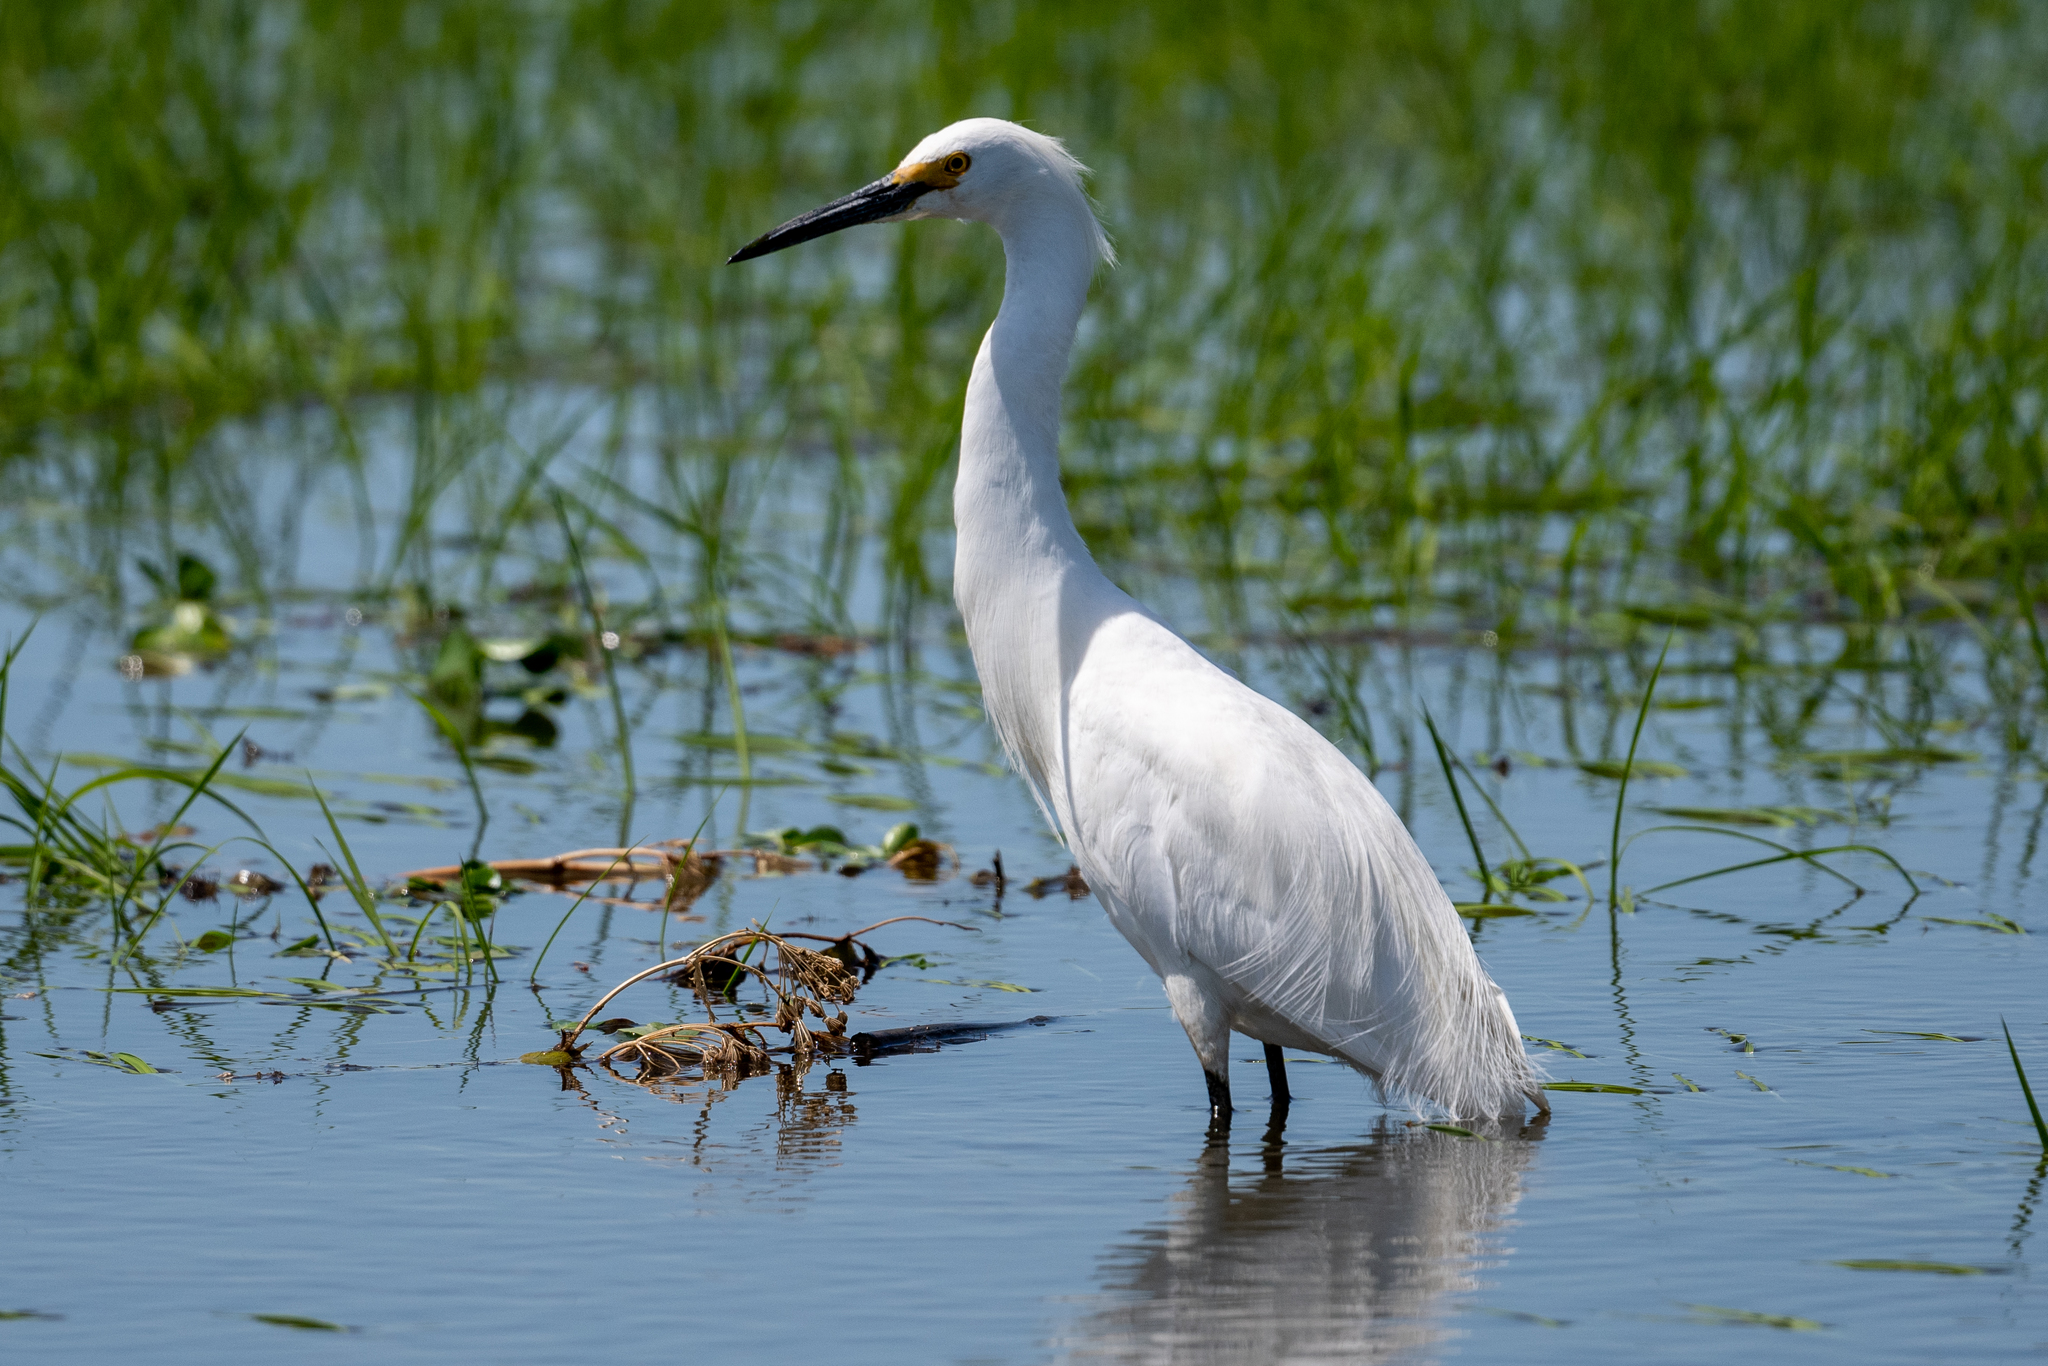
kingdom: Animalia
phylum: Chordata
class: Aves
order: Pelecaniformes
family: Ardeidae
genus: Egretta
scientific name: Egretta thula
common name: Snowy egret
